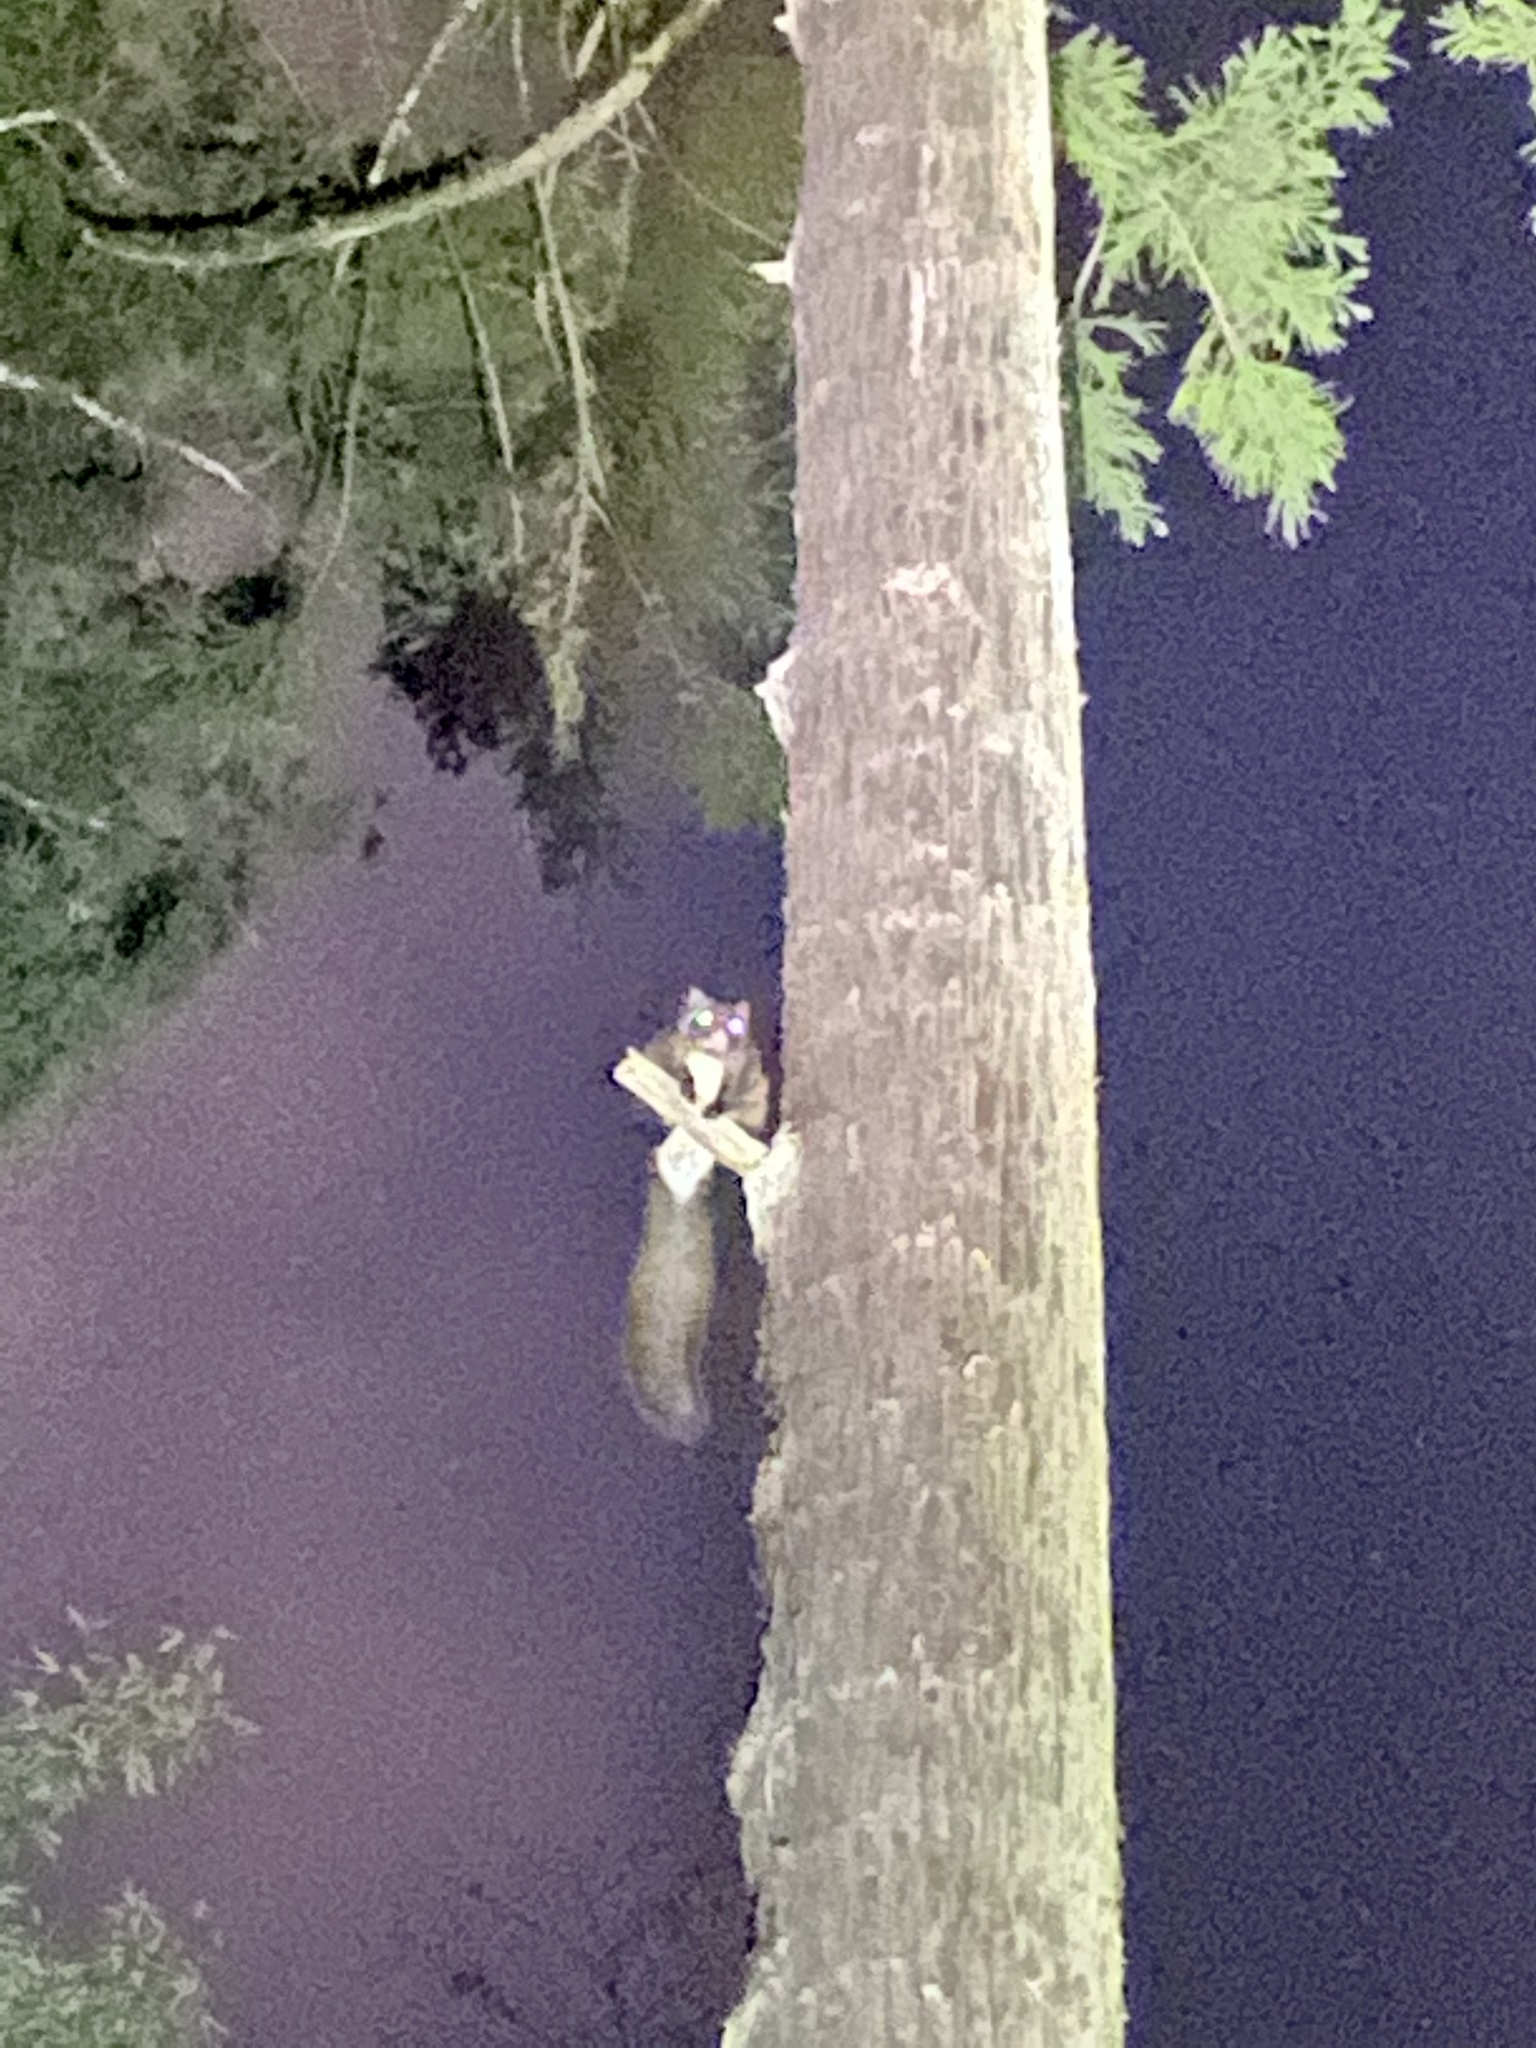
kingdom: Animalia
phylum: Chordata
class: Mammalia
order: Rodentia
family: Sciuridae
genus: Petaurista
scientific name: Petaurista leucogenys
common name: Japanese giant flying squirrel
